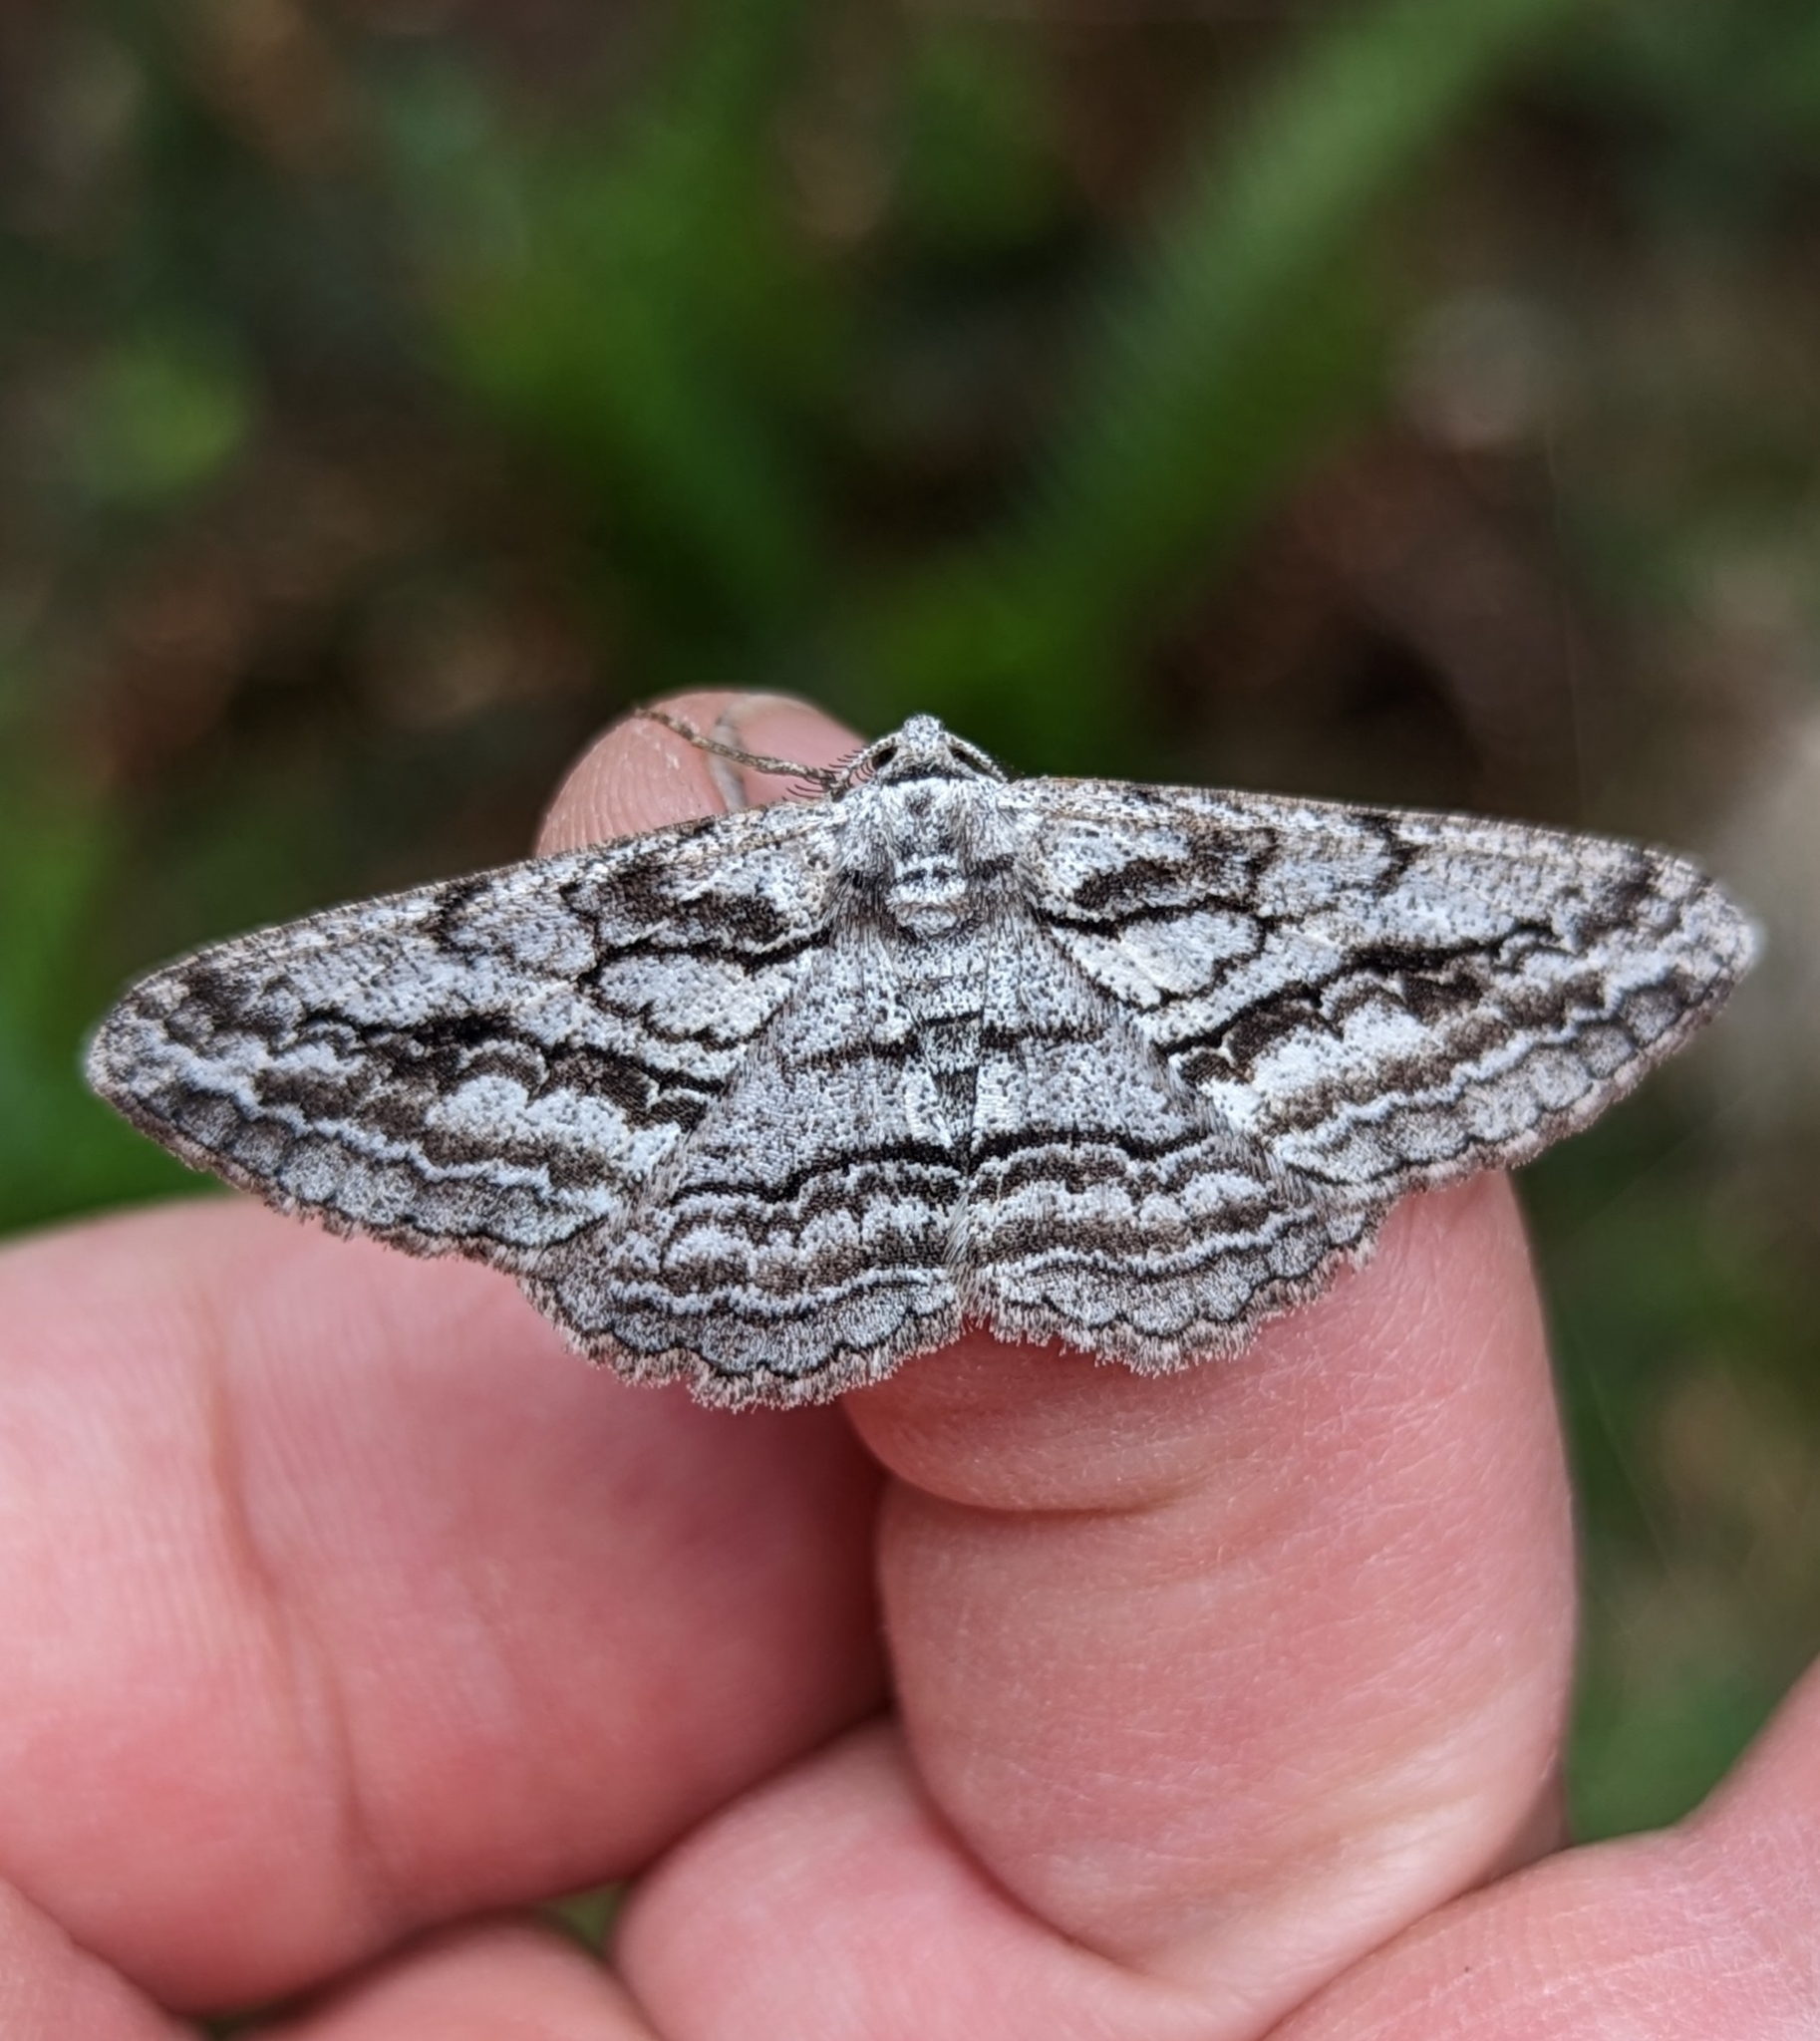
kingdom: Animalia
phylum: Arthropoda
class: Insecta
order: Lepidoptera
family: Geometridae
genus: Stenoporpia
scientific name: Stenoporpia excelsaria
